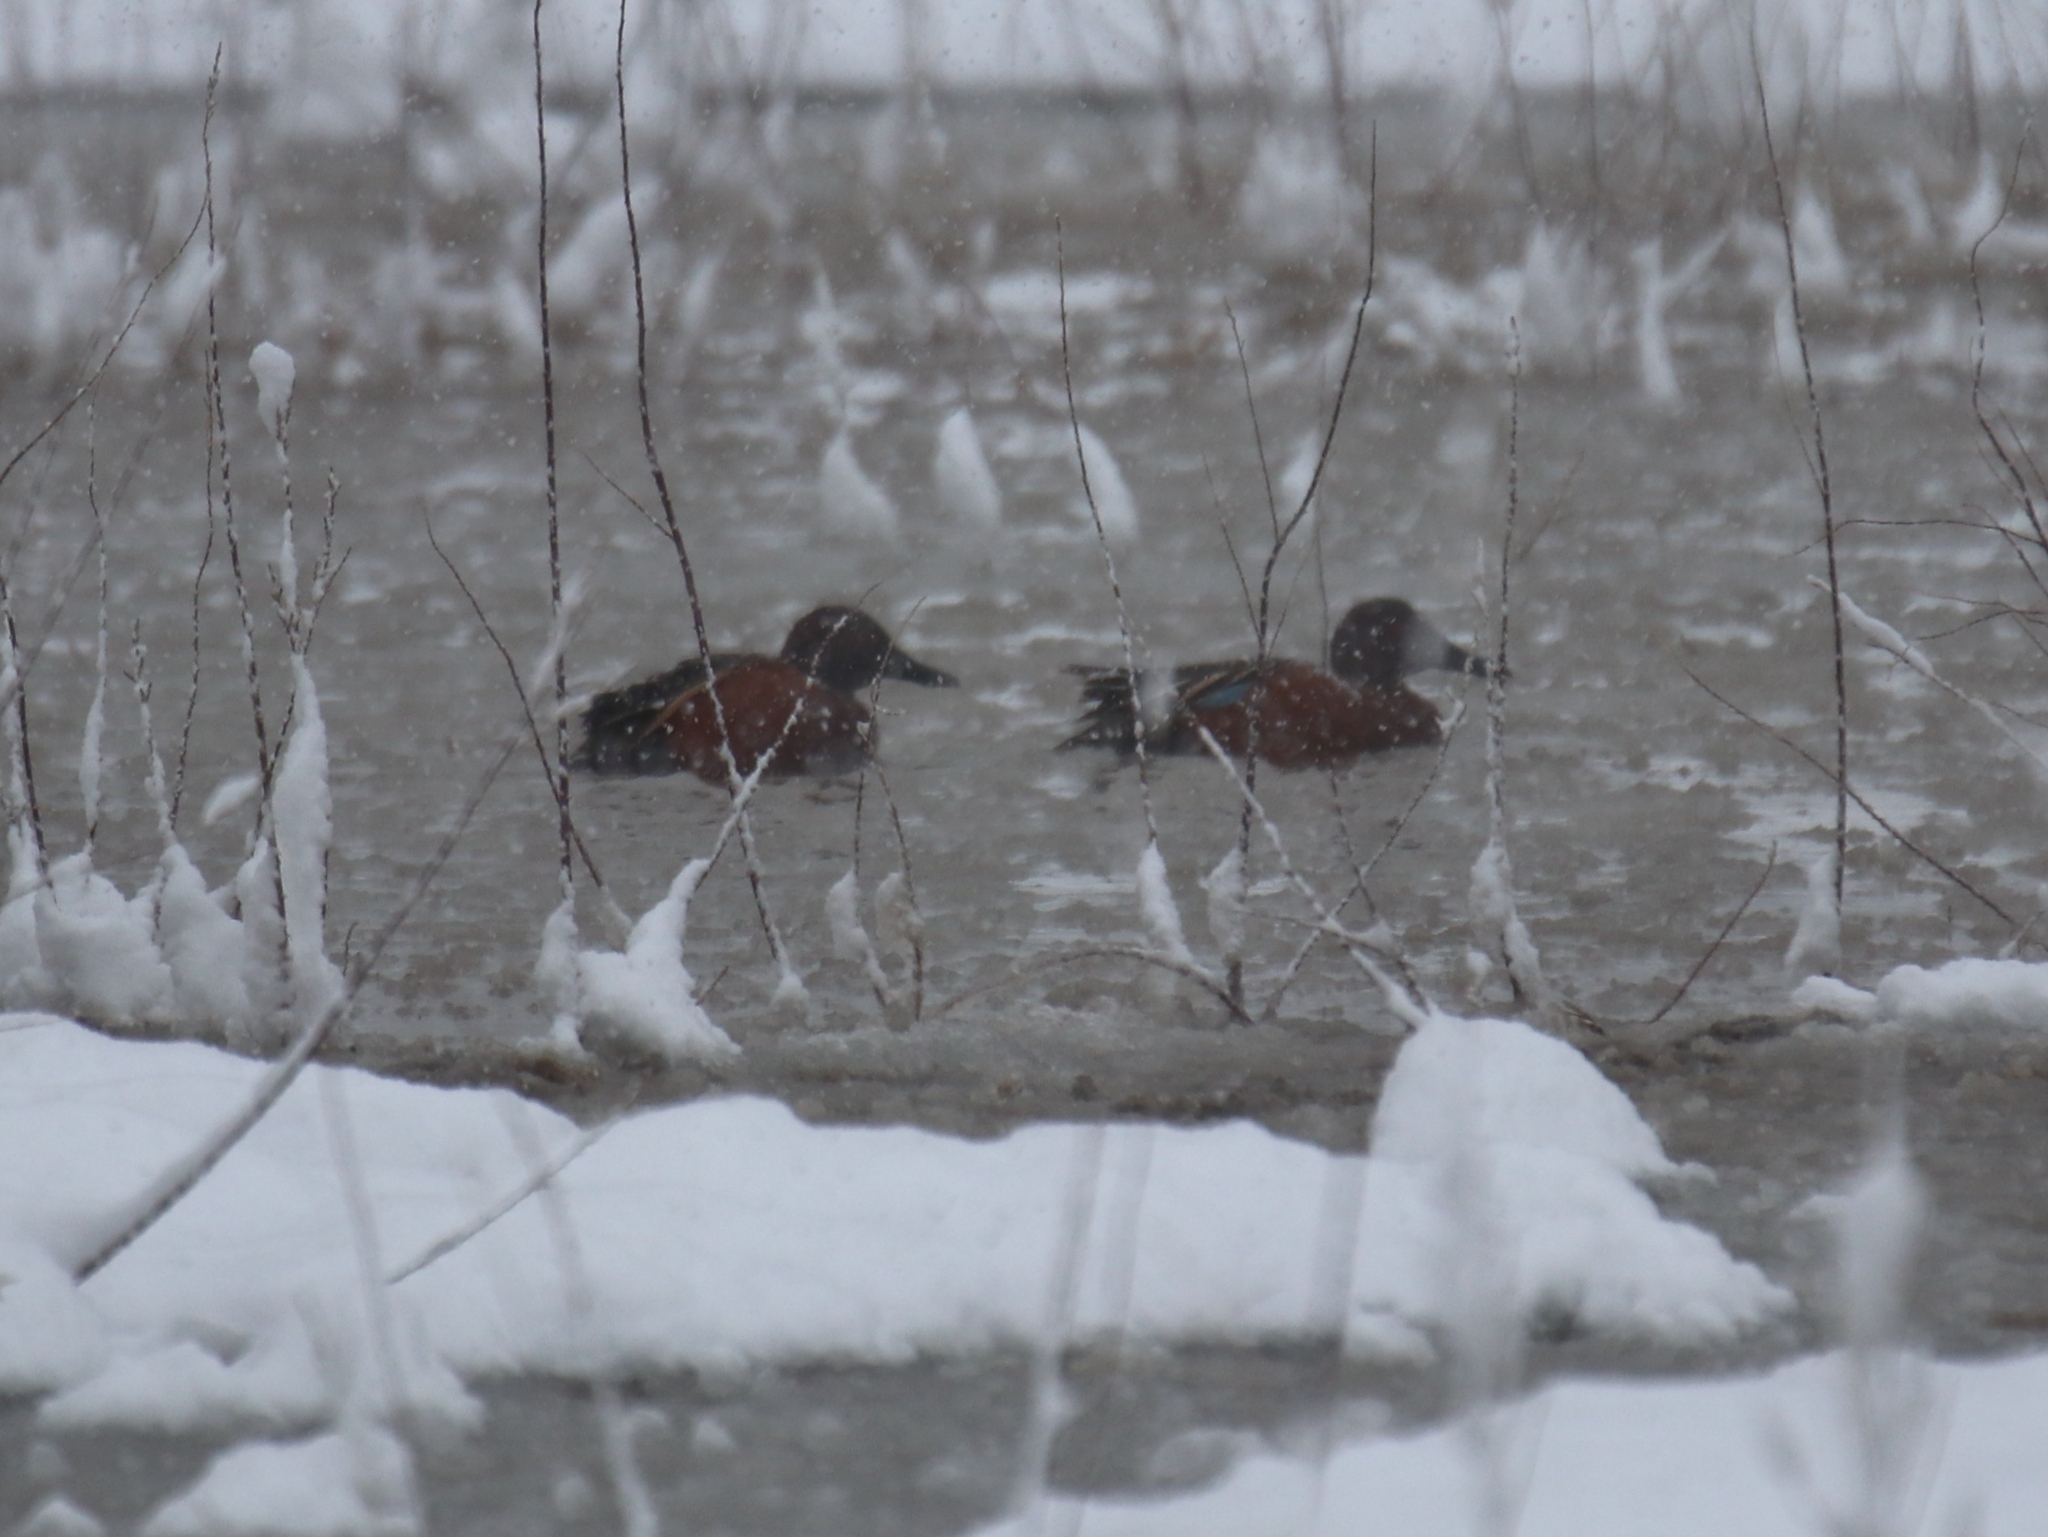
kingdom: Animalia
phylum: Chordata
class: Aves
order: Anseriformes
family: Anatidae
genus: Spatula
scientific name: Spatula cyanoptera
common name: Cinnamon teal
